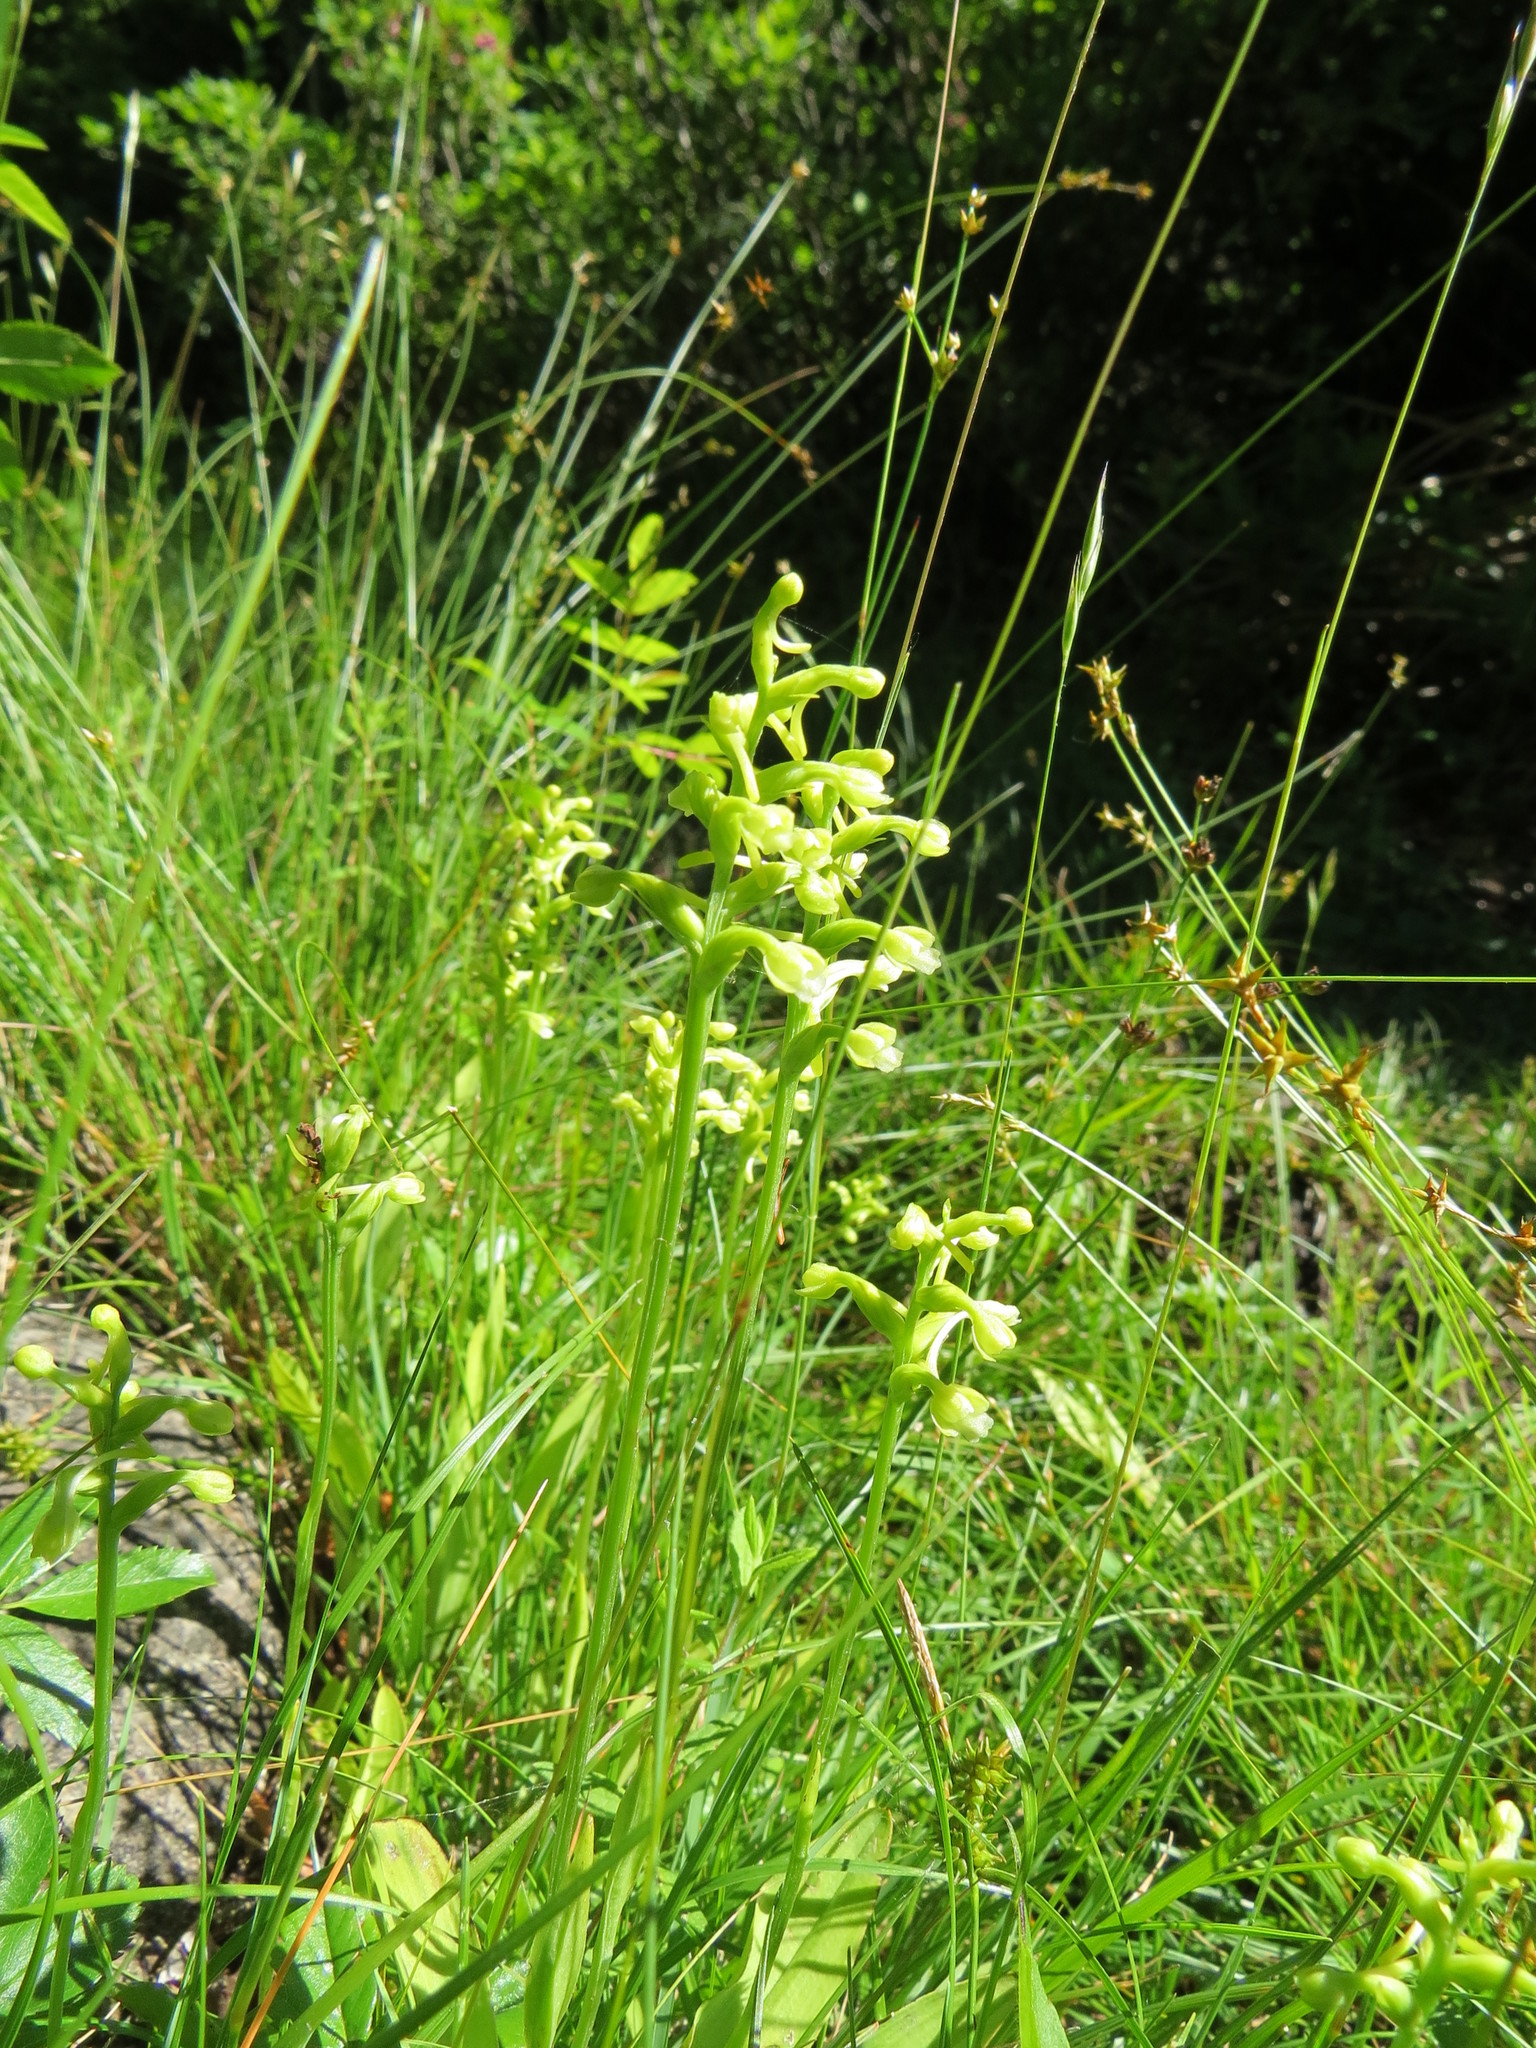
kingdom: Plantae
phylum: Tracheophyta
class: Liliopsida
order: Asparagales
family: Orchidaceae
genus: Platanthera
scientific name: Platanthera clavellata
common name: Club-spur orchid
